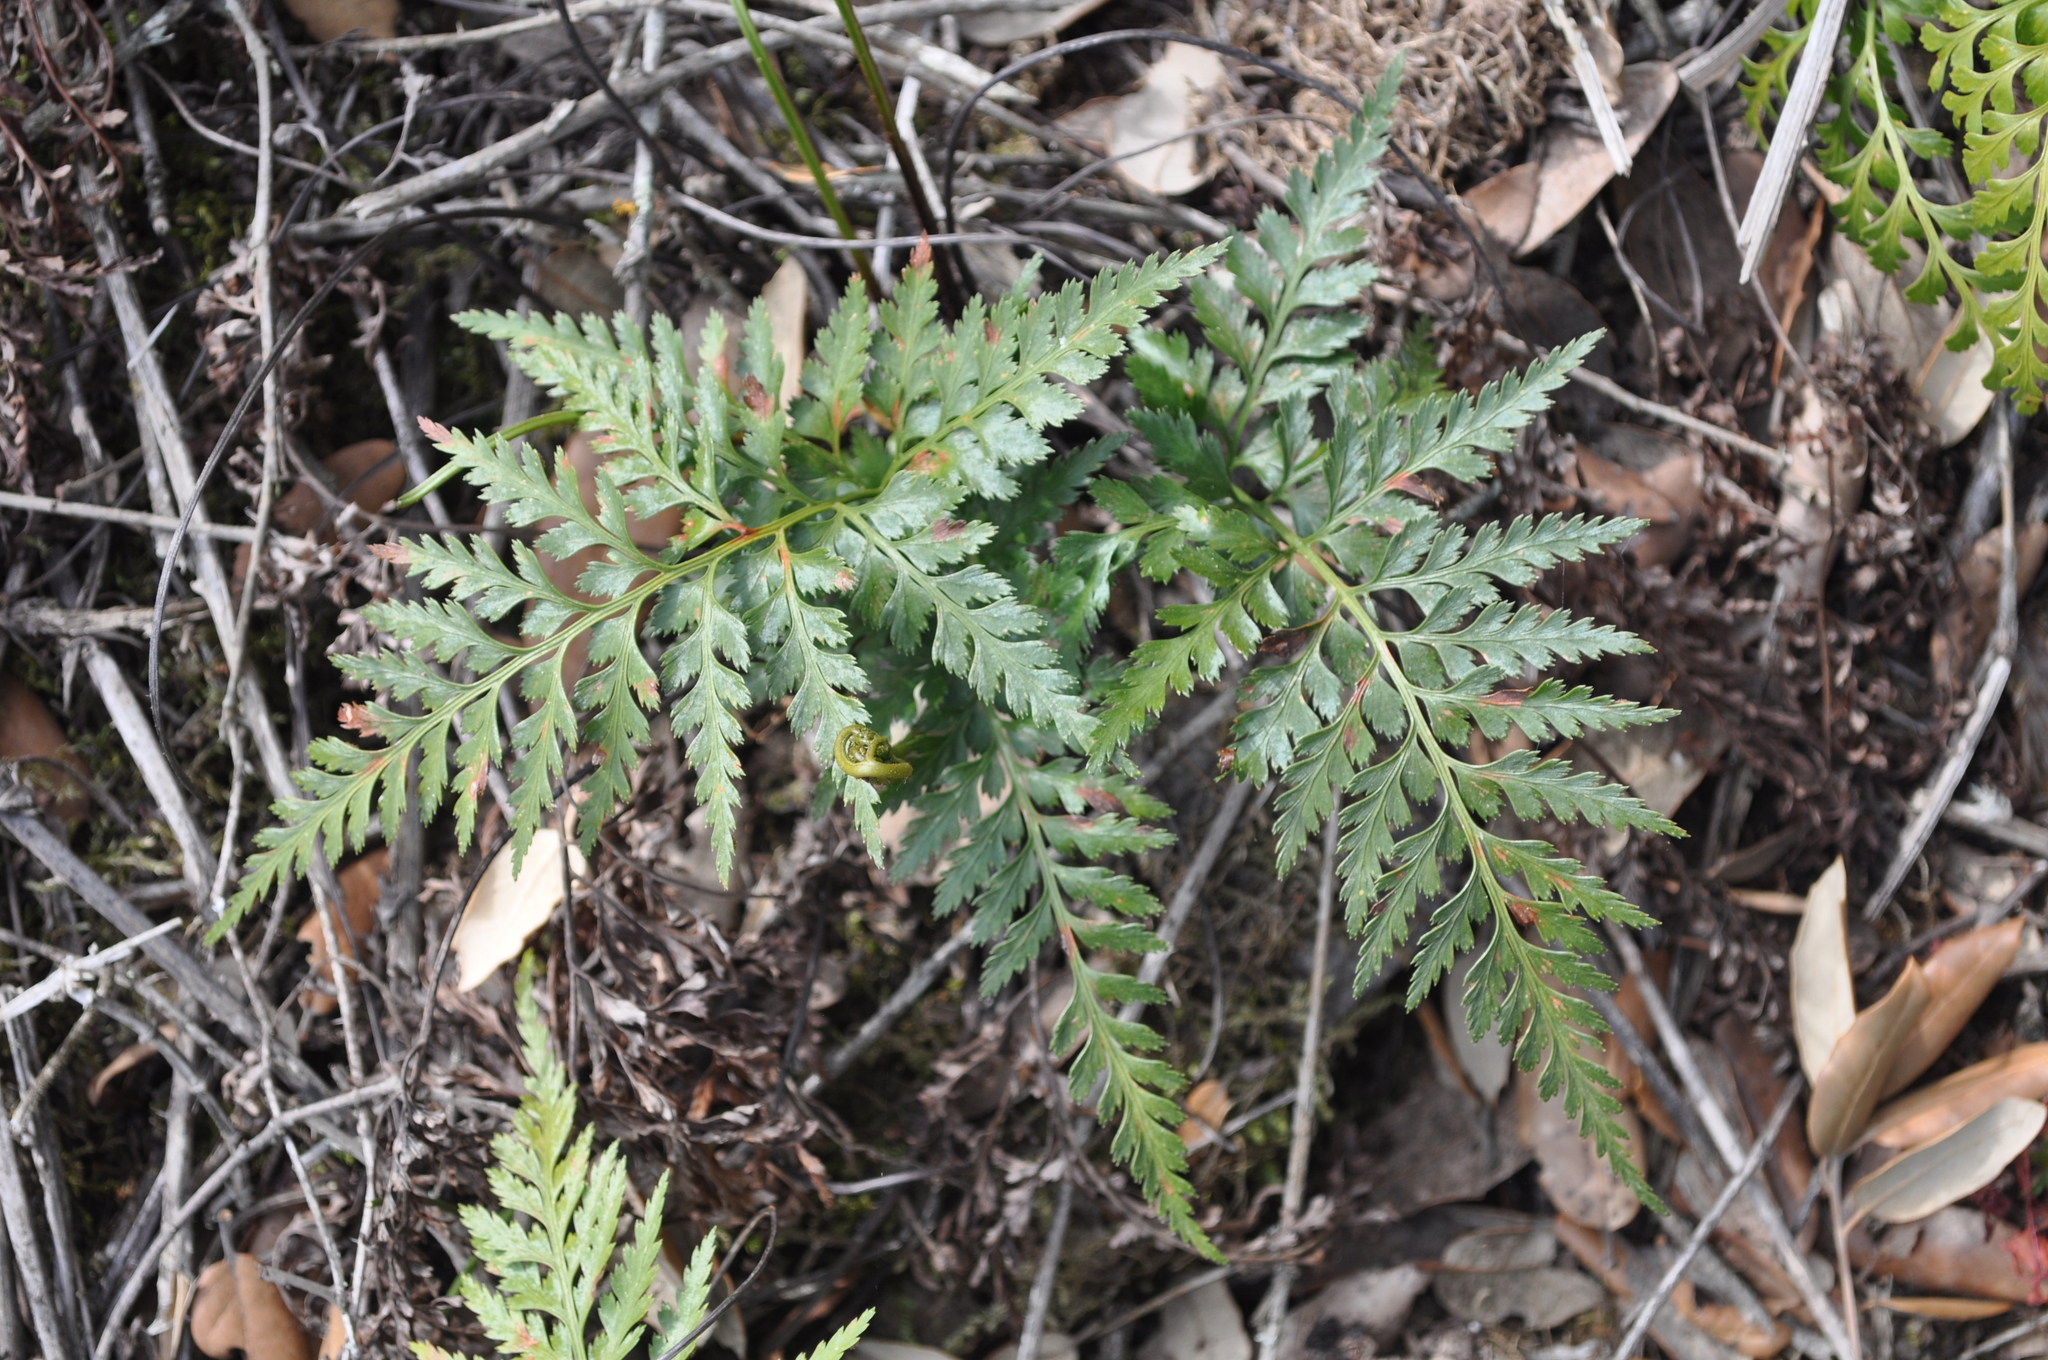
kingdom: Plantae
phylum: Tracheophyta
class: Polypodiopsida
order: Polypodiales
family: Aspleniaceae
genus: Asplenium
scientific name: Asplenium onopteris
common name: Irish spleenwort
